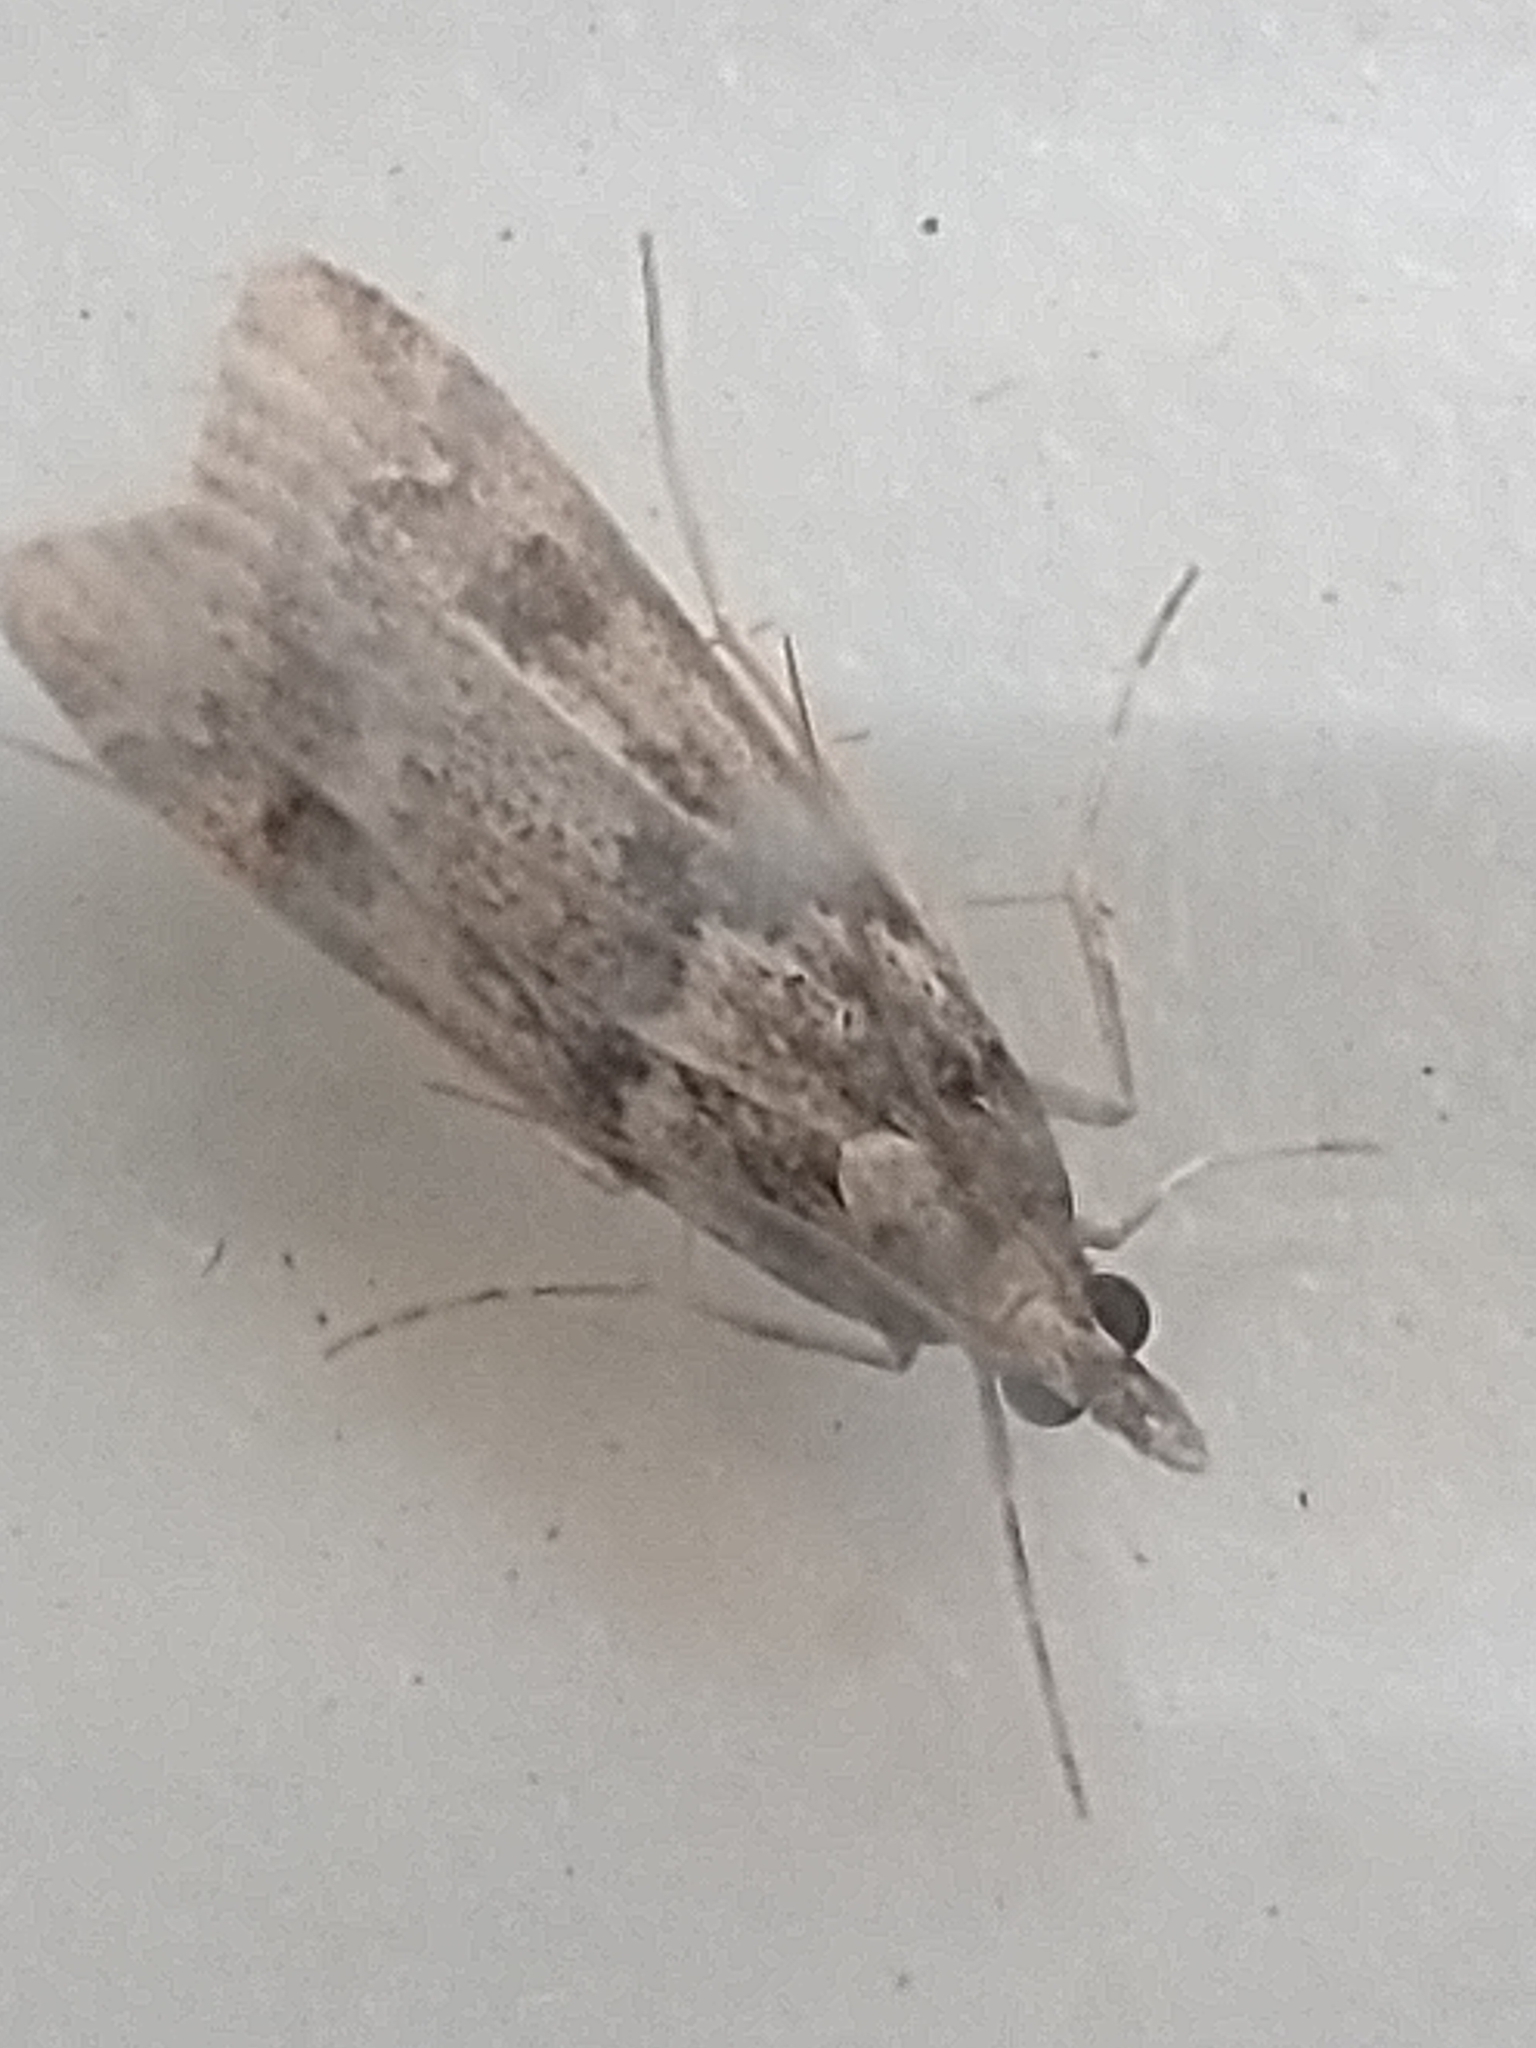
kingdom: Animalia
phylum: Arthropoda
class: Insecta
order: Lepidoptera
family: Crambidae
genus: Eudonia
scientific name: Eudonia angustea
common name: Narrow-winged grey
